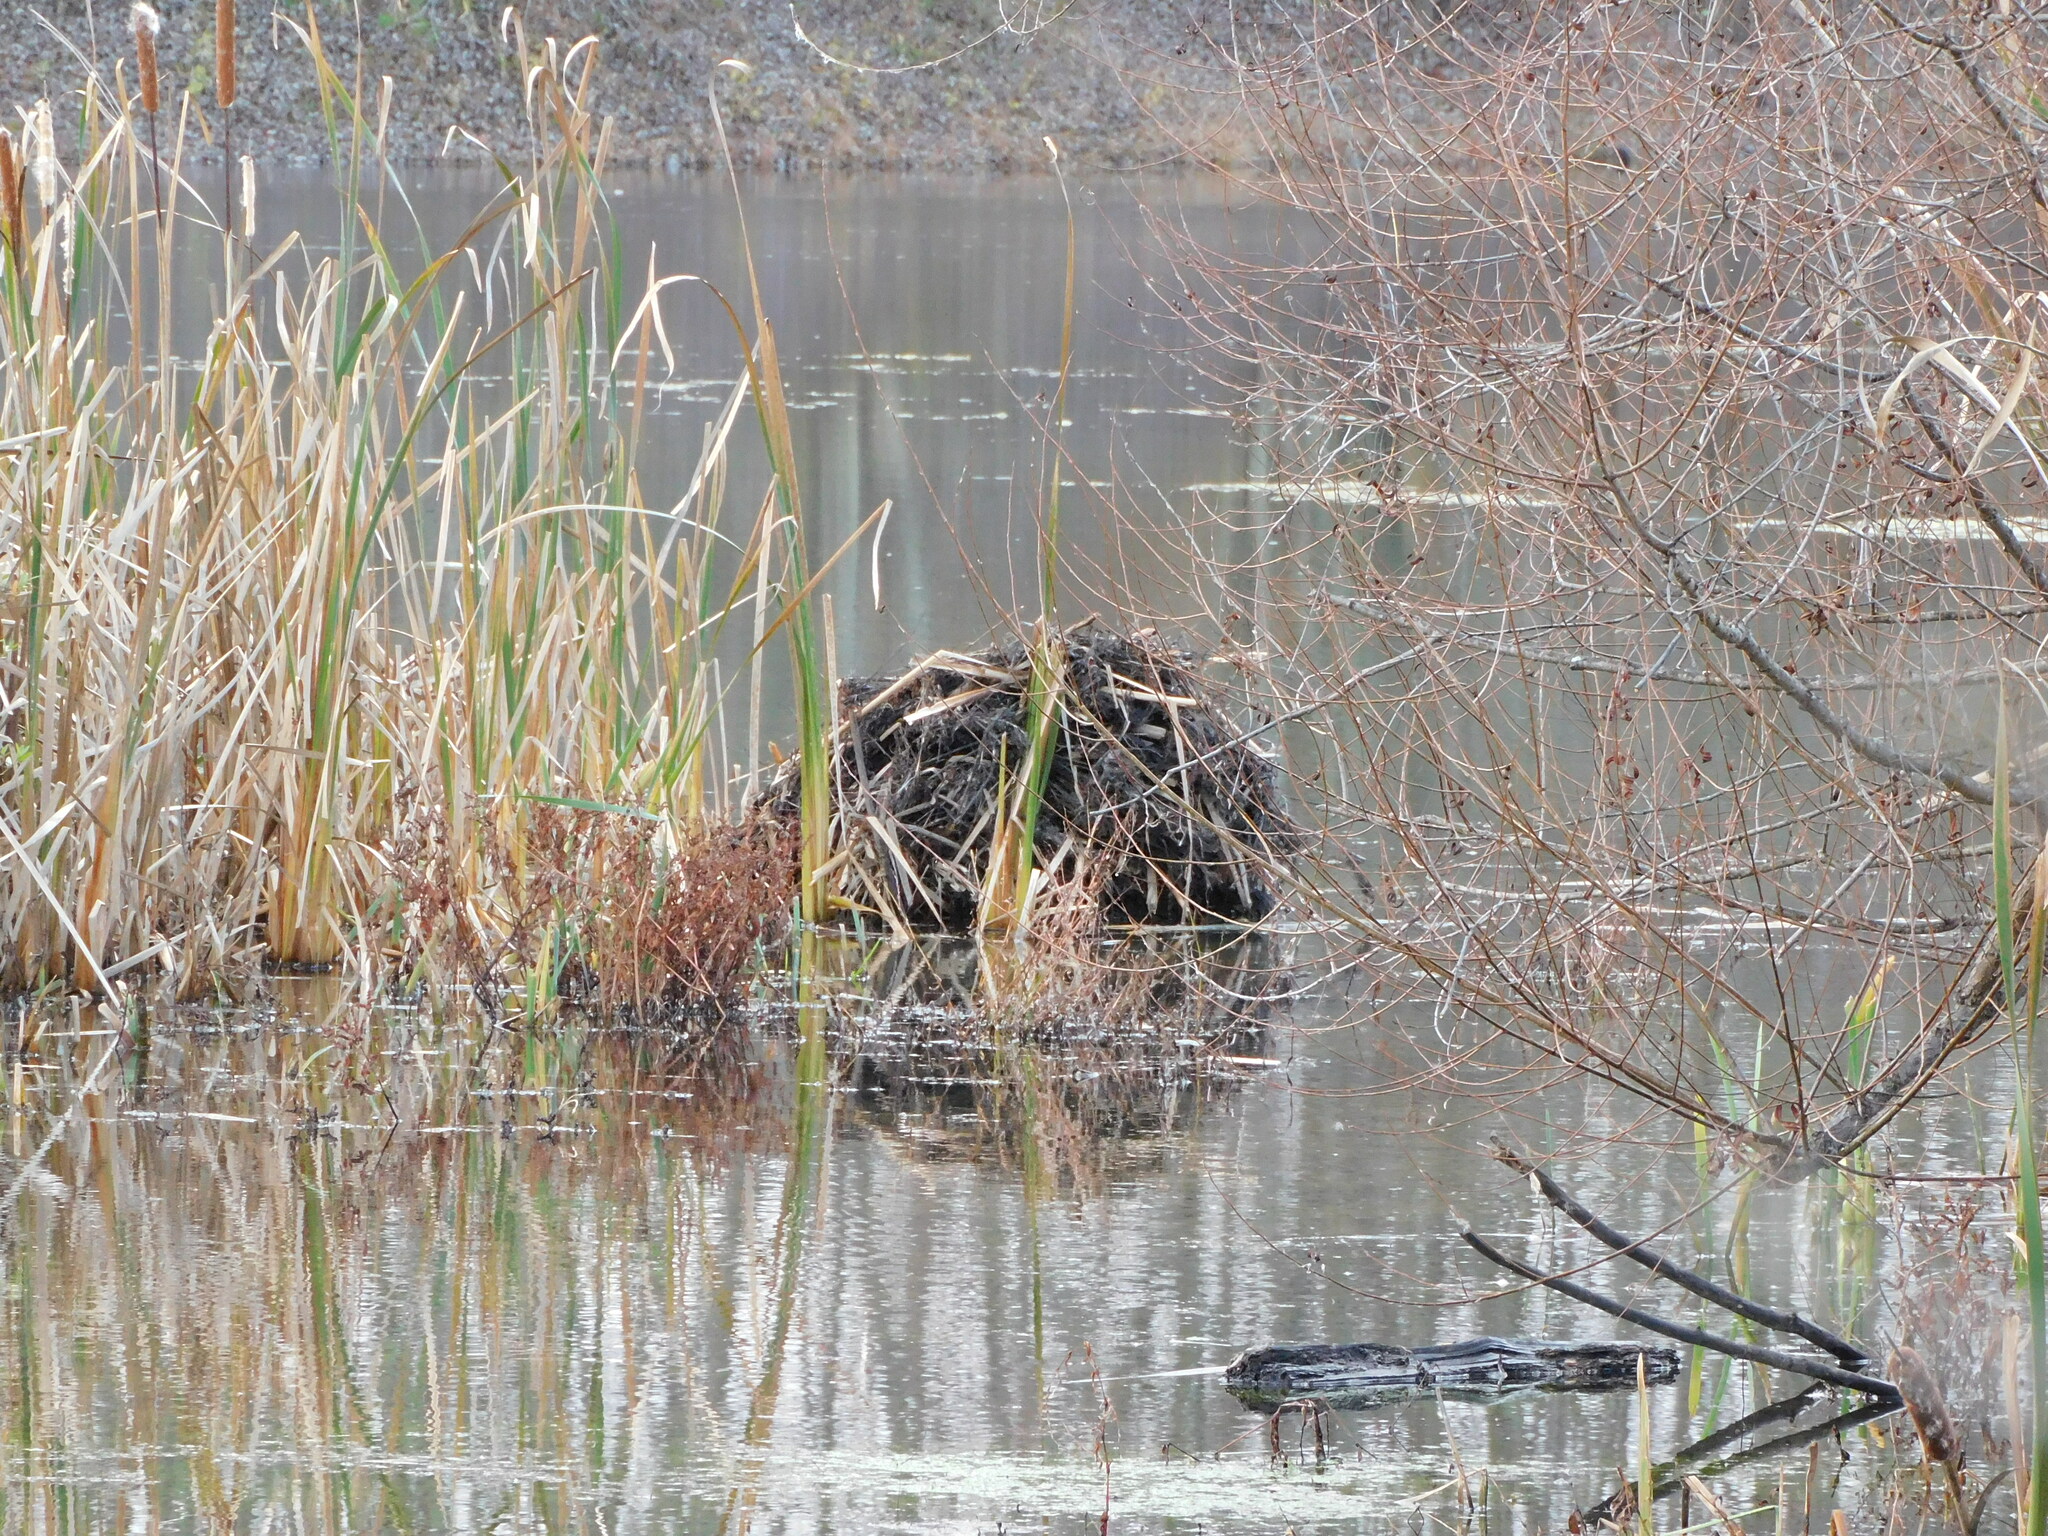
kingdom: Animalia
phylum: Chordata
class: Mammalia
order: Rodentia
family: Cricetidae
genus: Ondatra
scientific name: Ondatra zibethicus
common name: Muskrat
